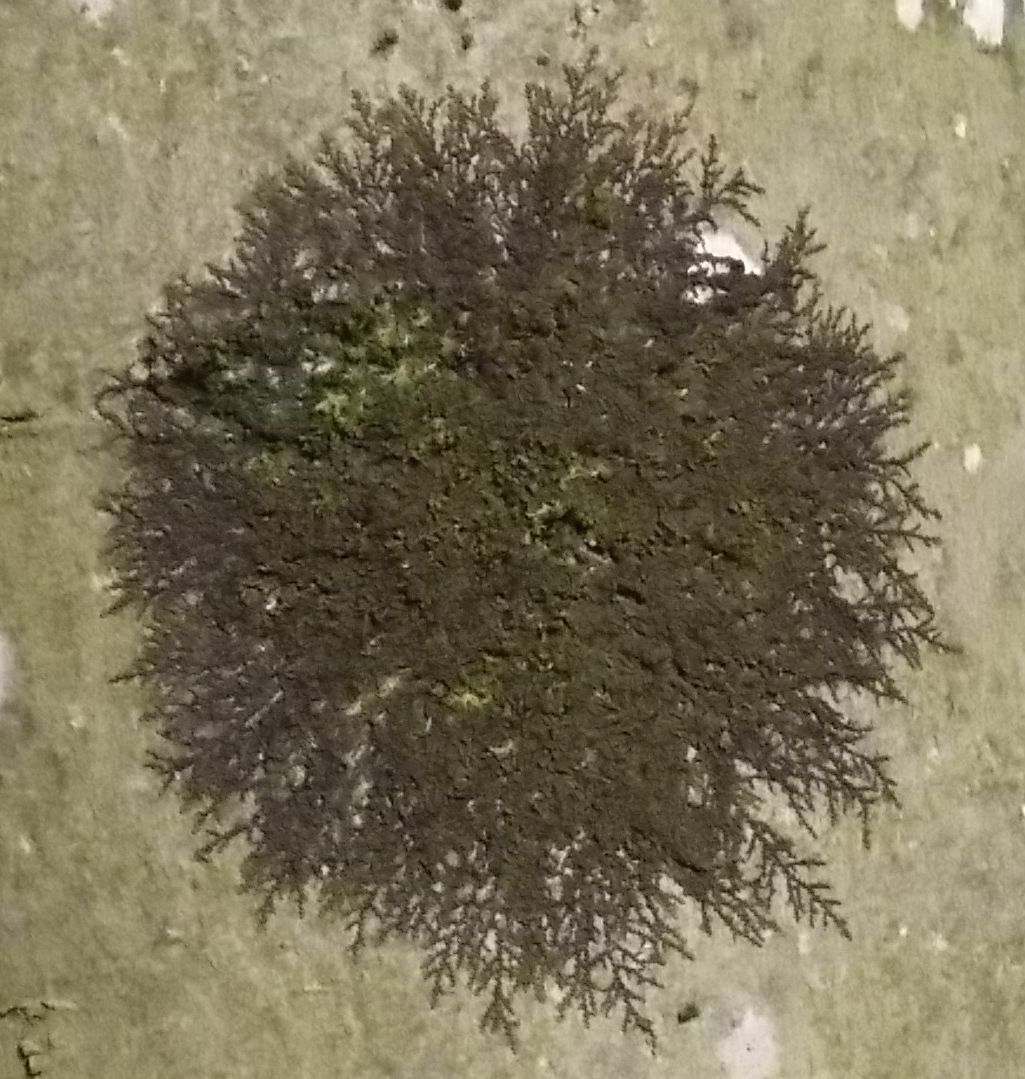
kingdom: Plantae
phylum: Marchantiophyta
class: Jungermanniopsida
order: Porellales
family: Frullaniaceae
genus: Frullania
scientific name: Frullania dilatata
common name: Dilated scalewort
